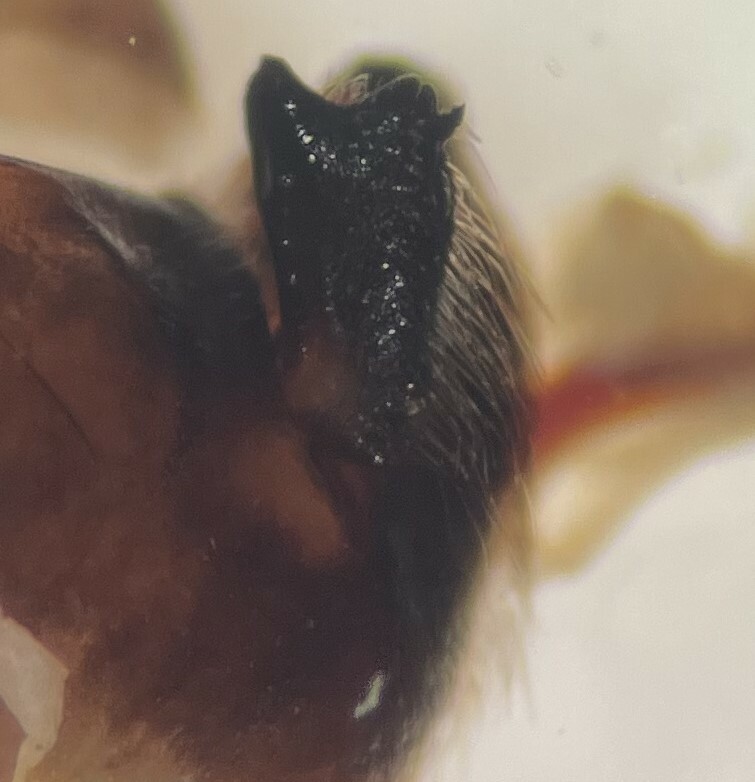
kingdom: Animalia
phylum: Arthropoda
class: Insecta
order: Hemiptera
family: Notonectidae
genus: Notonecta
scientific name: Notonecta indica
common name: Backswimmer
